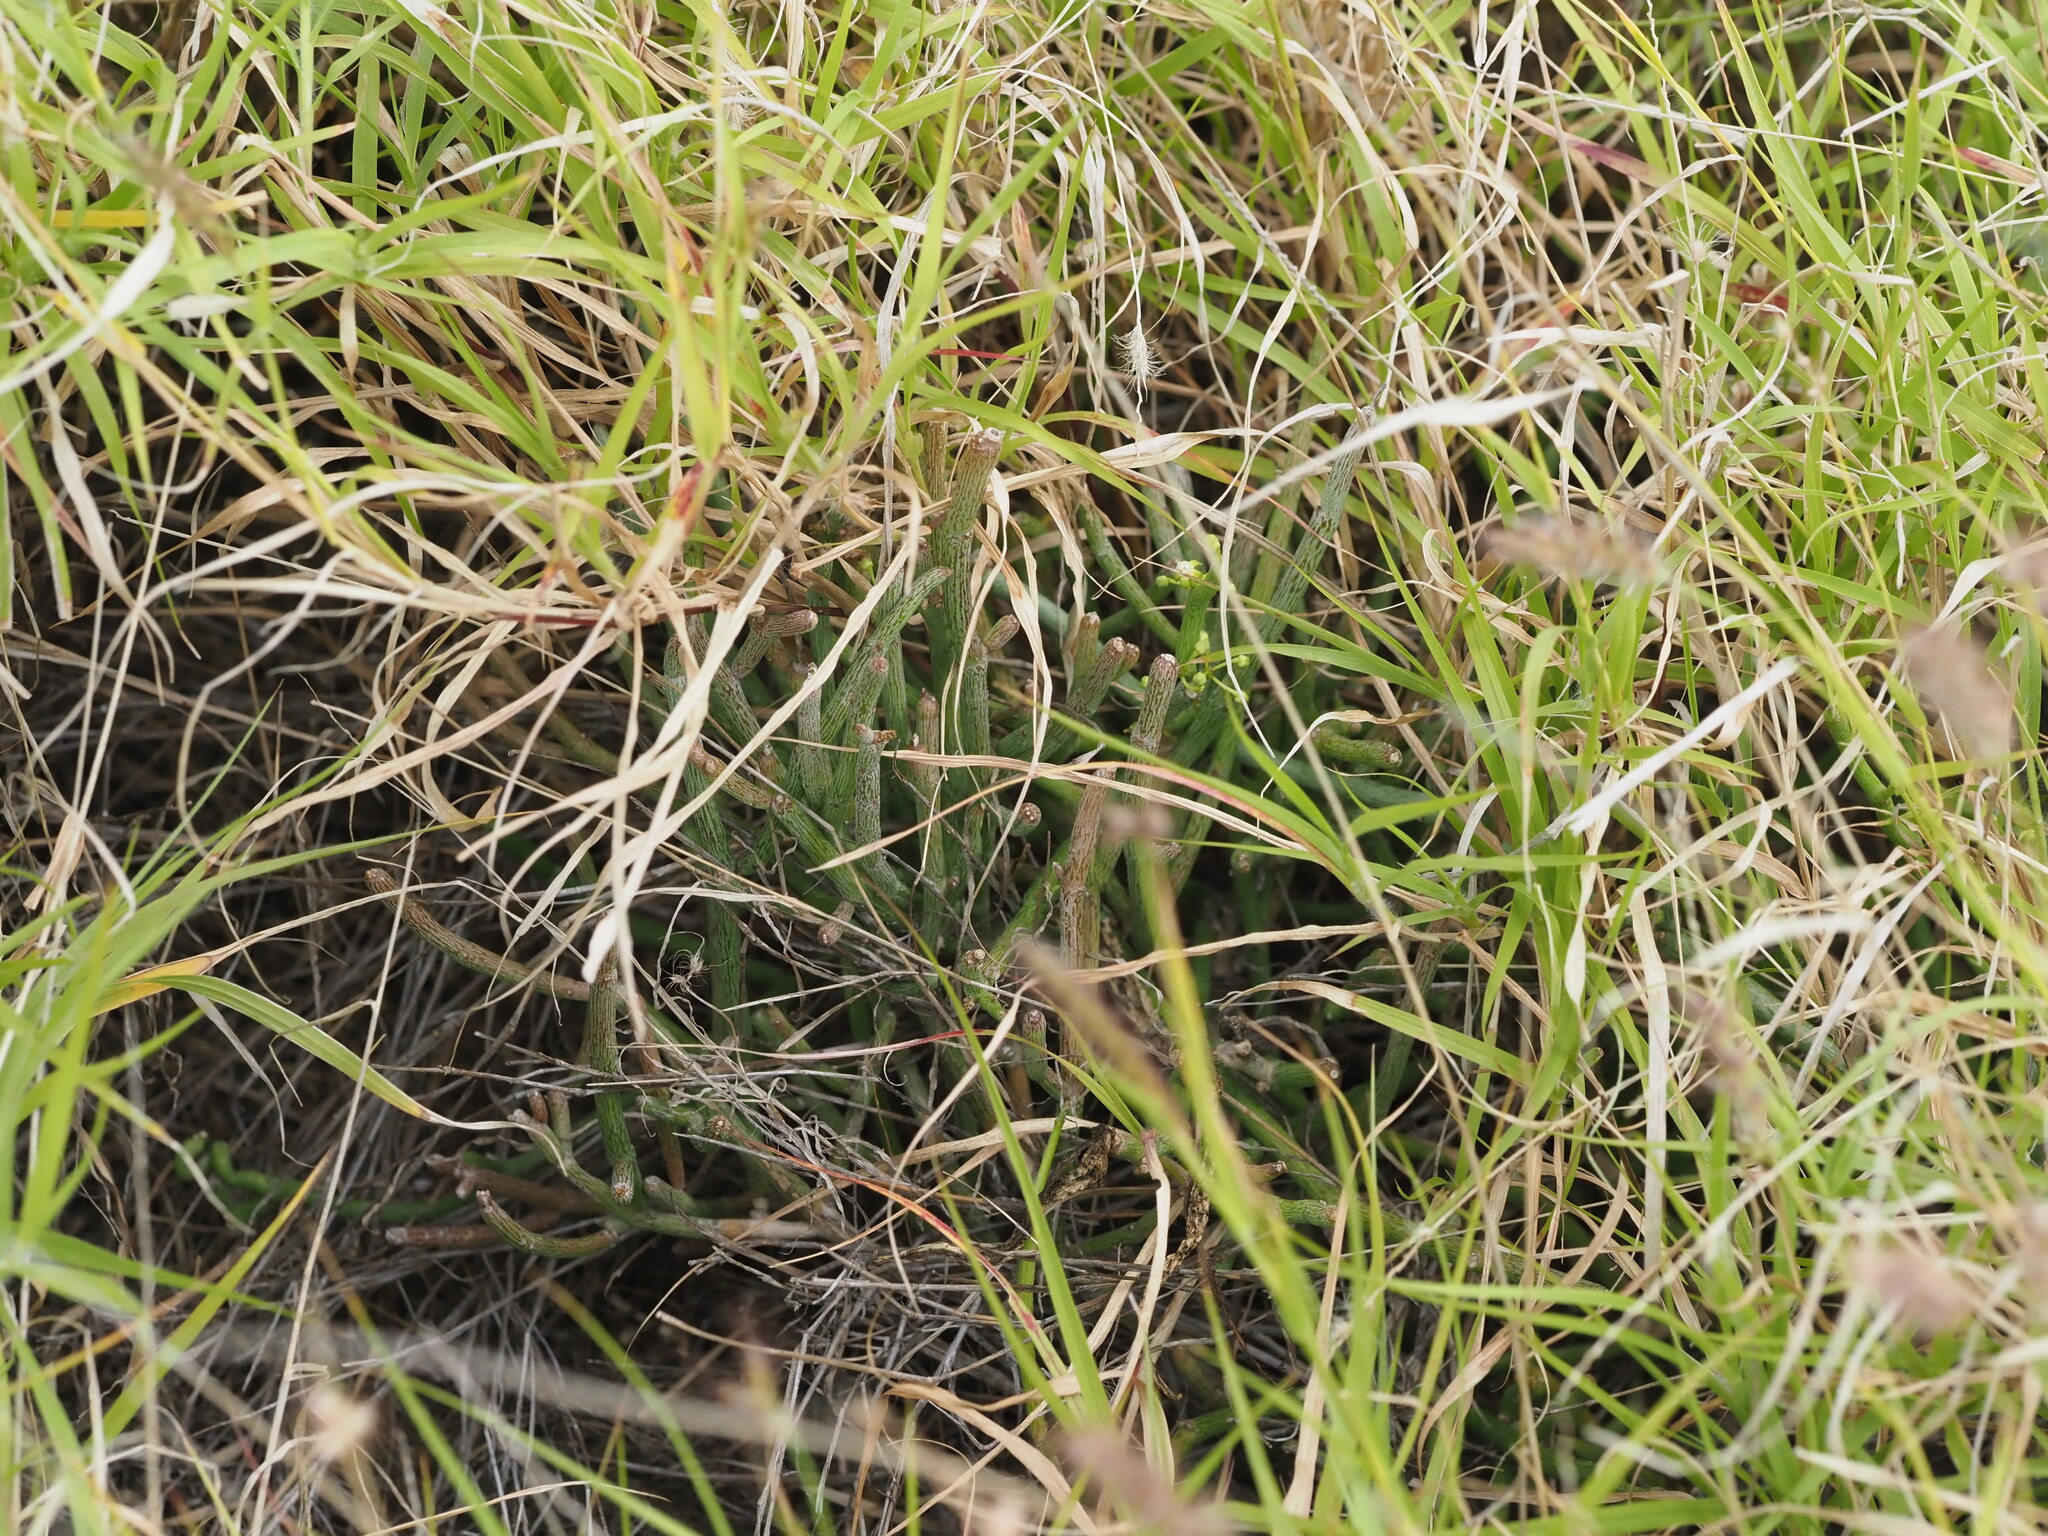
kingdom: Plantae
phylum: Tracheophyta
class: Magnoliopsida
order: Gentianales
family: Apocynaceae
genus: Cynanchum
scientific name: Cynanchum gerrardi
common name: Swallow-wort
